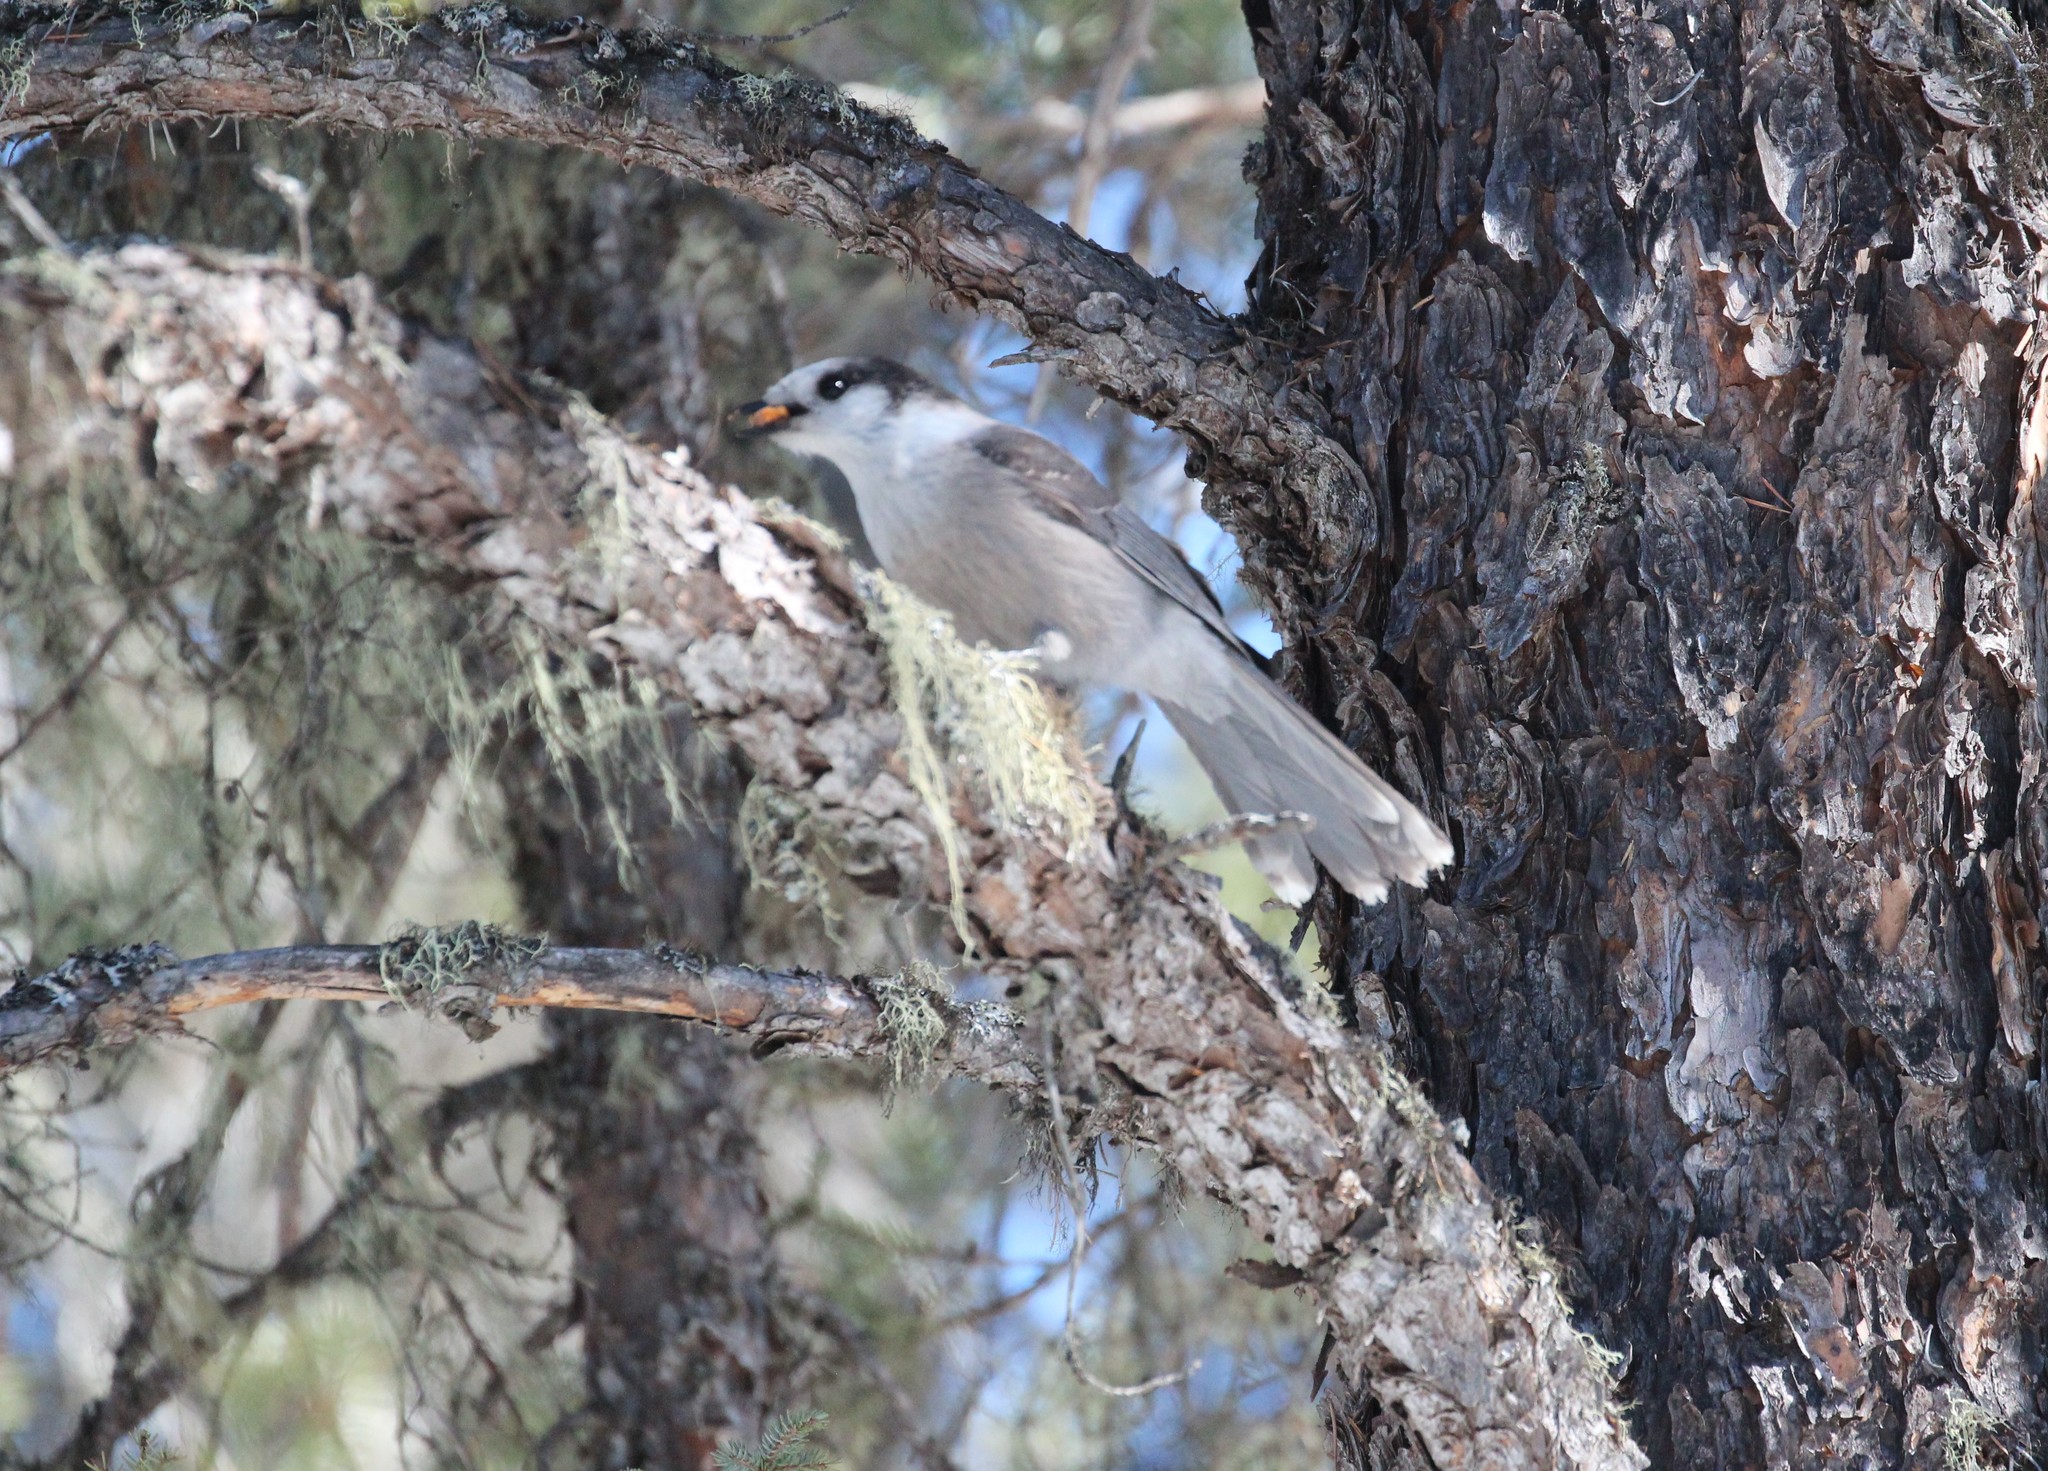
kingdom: Animalia
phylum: Chordata
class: Aves
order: Passeriformes
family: Corvidae
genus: Perisoreus
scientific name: Perisoreus canadensis
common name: Gray jay
